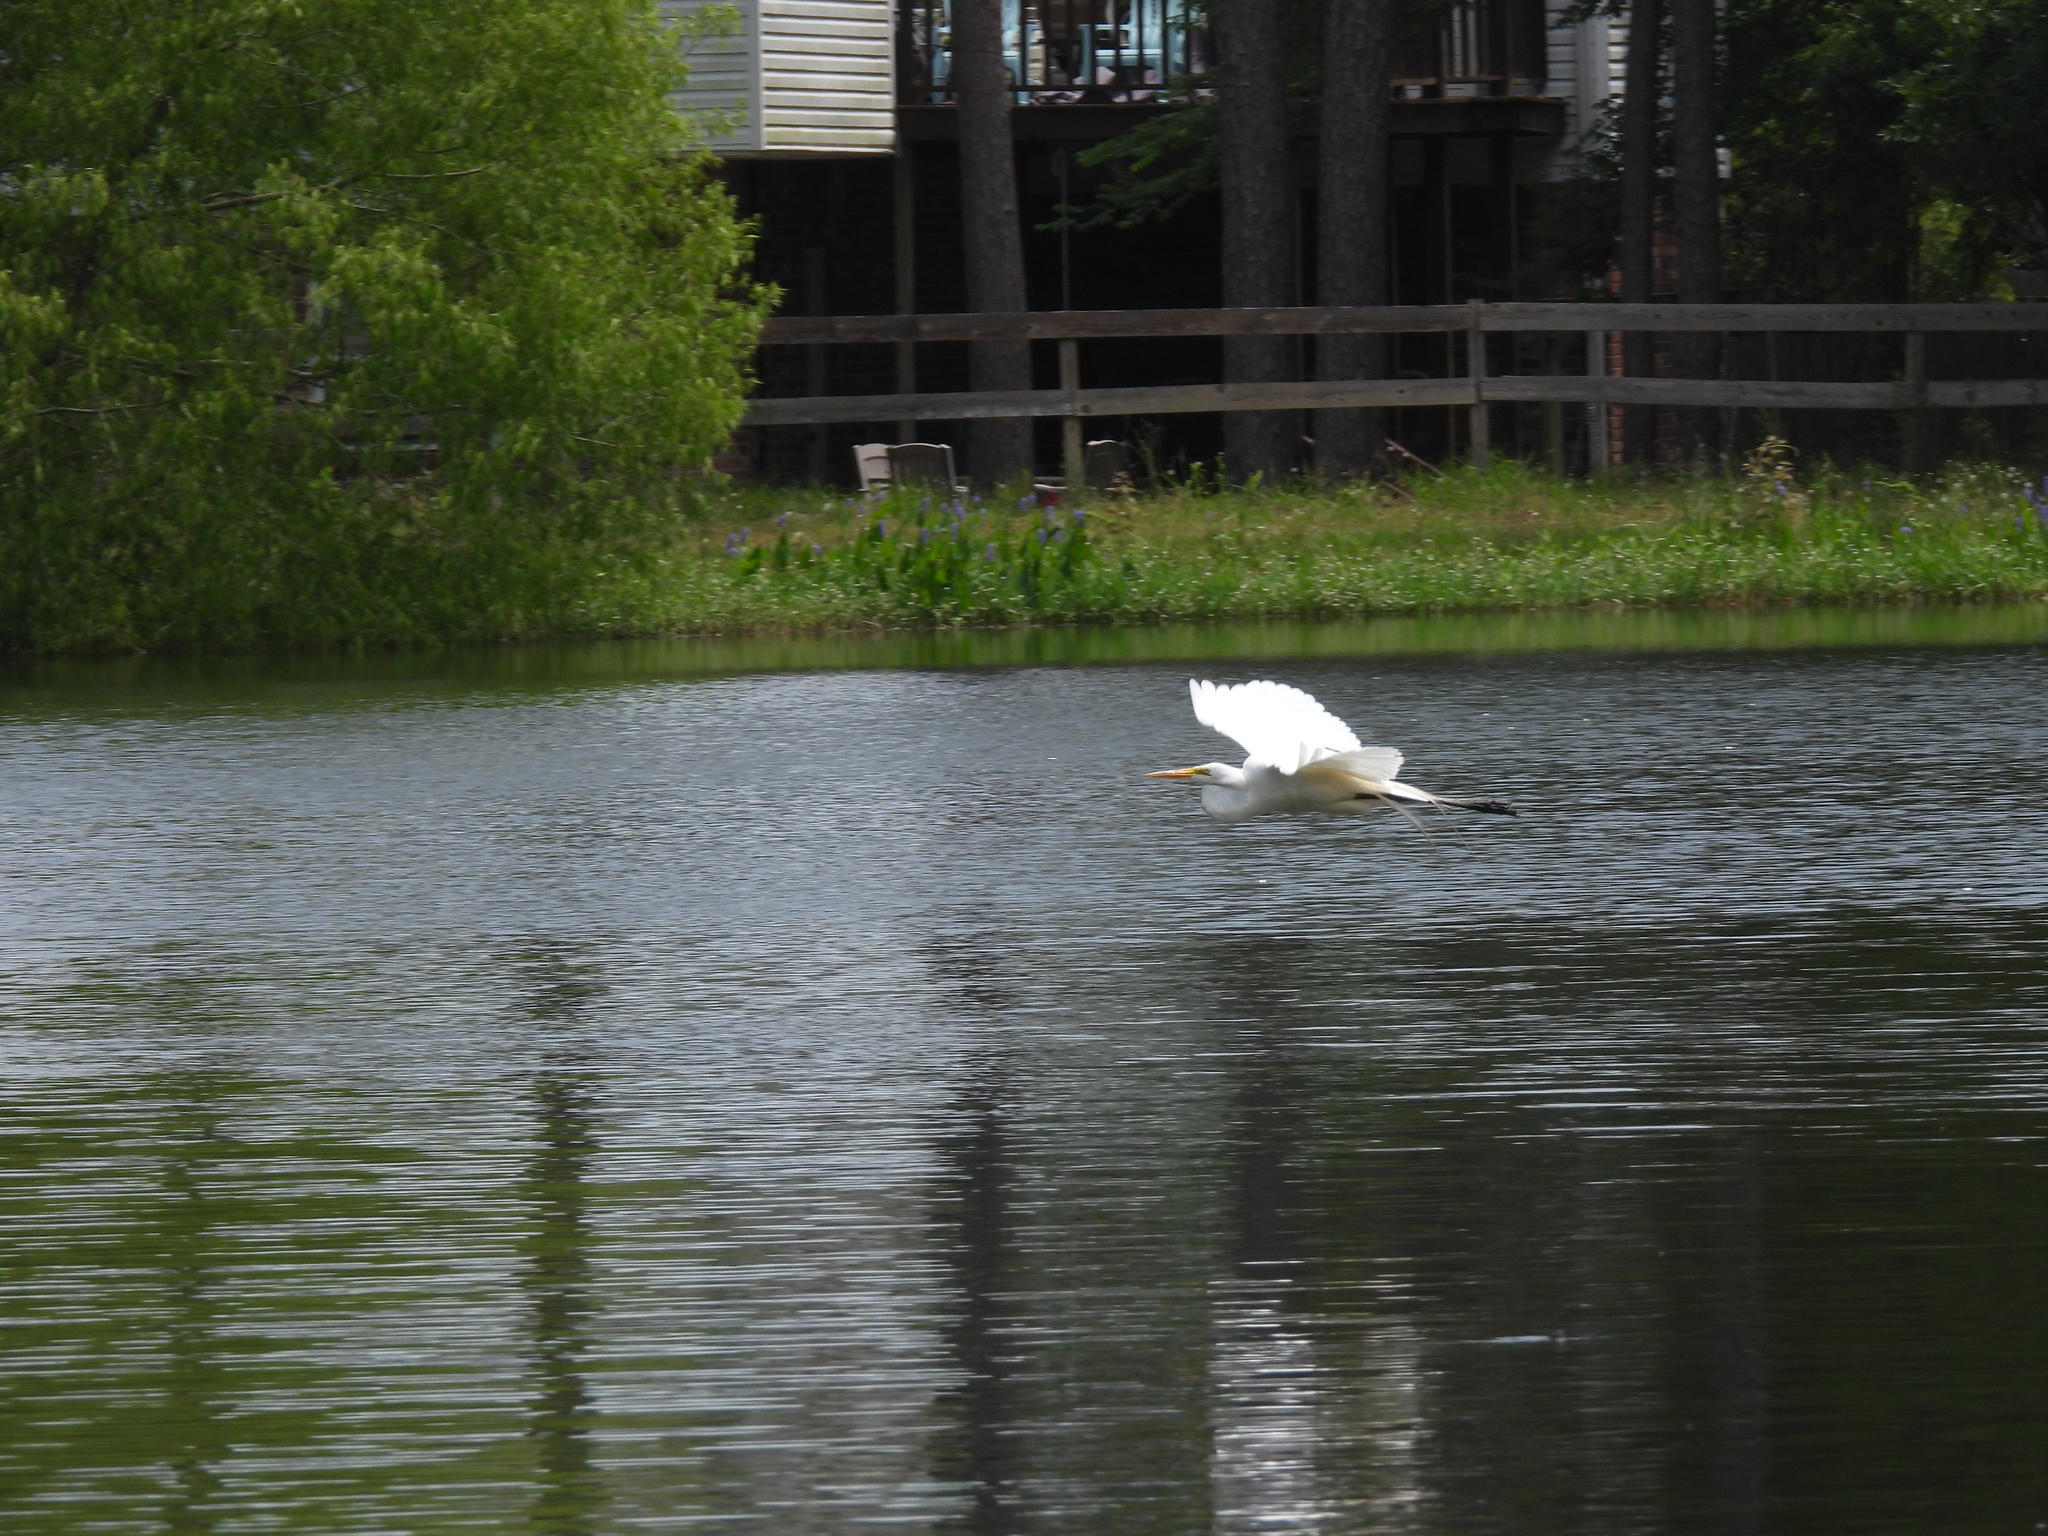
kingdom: Animalia
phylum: Chordata
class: Aves
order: Pelecaniformes
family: Ardeidae
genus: Ardea
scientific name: Ardea alba
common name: Great egret
